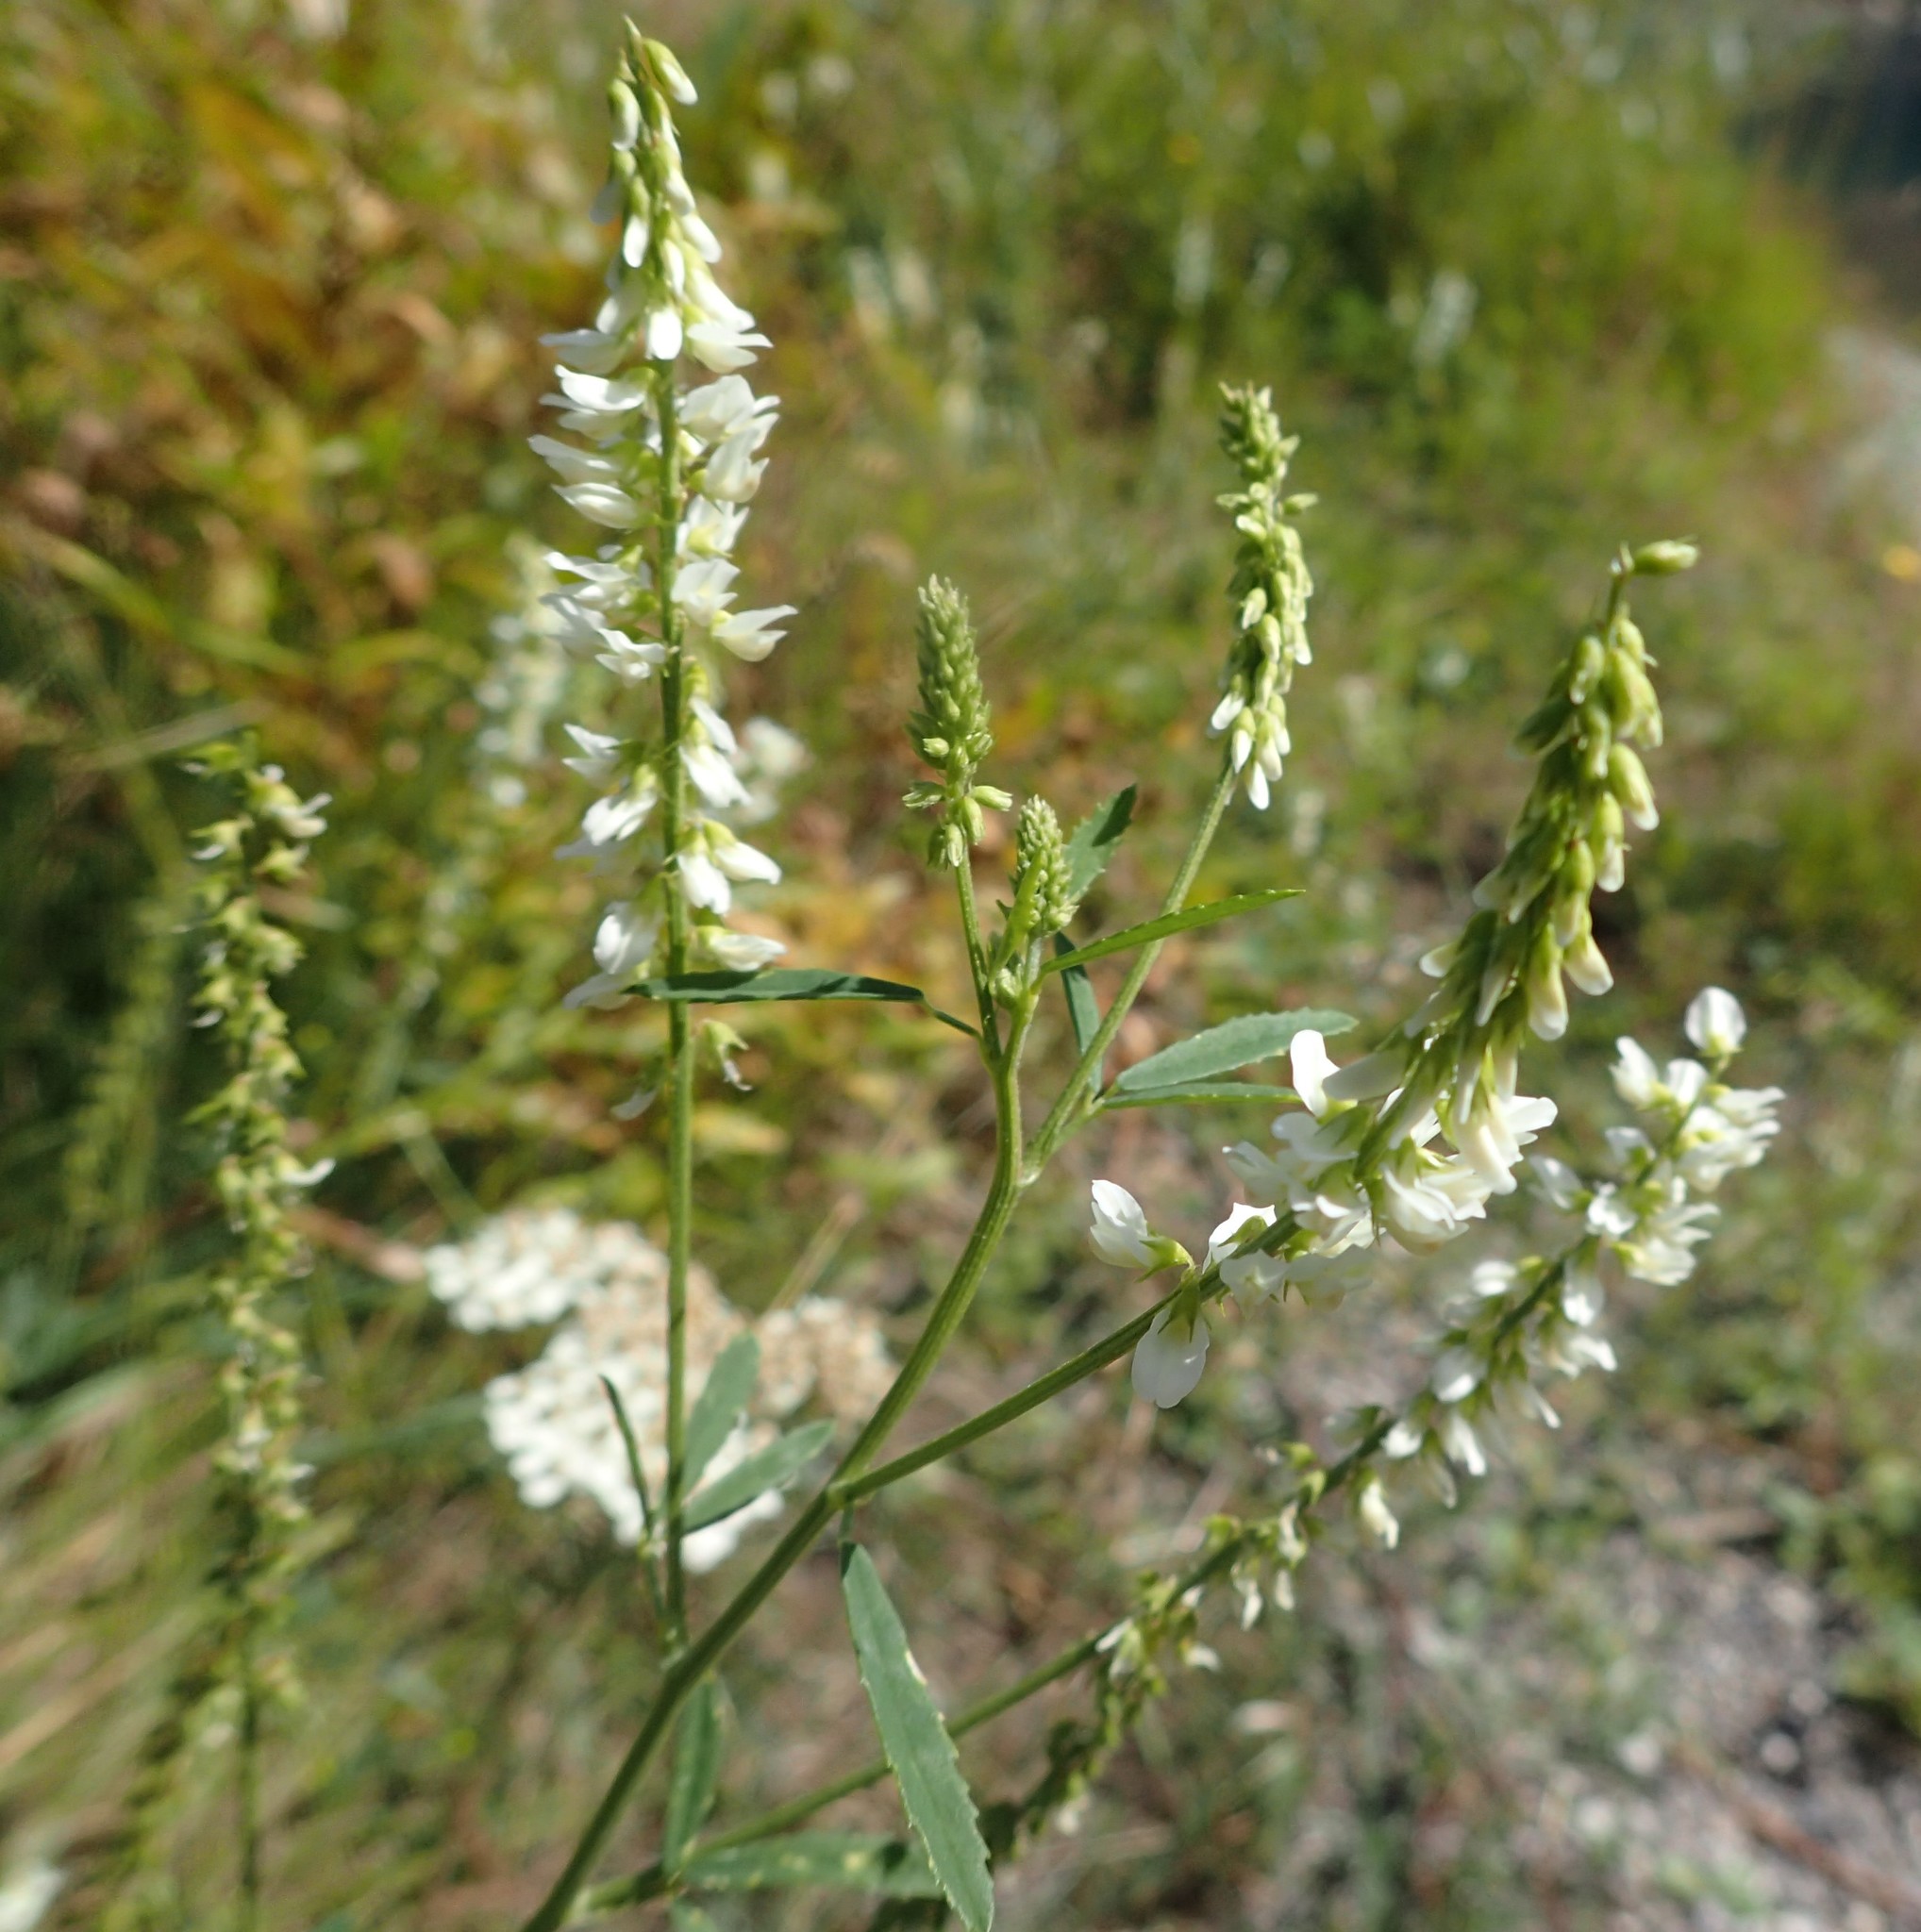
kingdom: Plantae
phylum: Tracheophyta
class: Magnoliopsida
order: Fabales
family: Fabaceae
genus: Melilotus
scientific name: Melilotus albus
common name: White melilot
